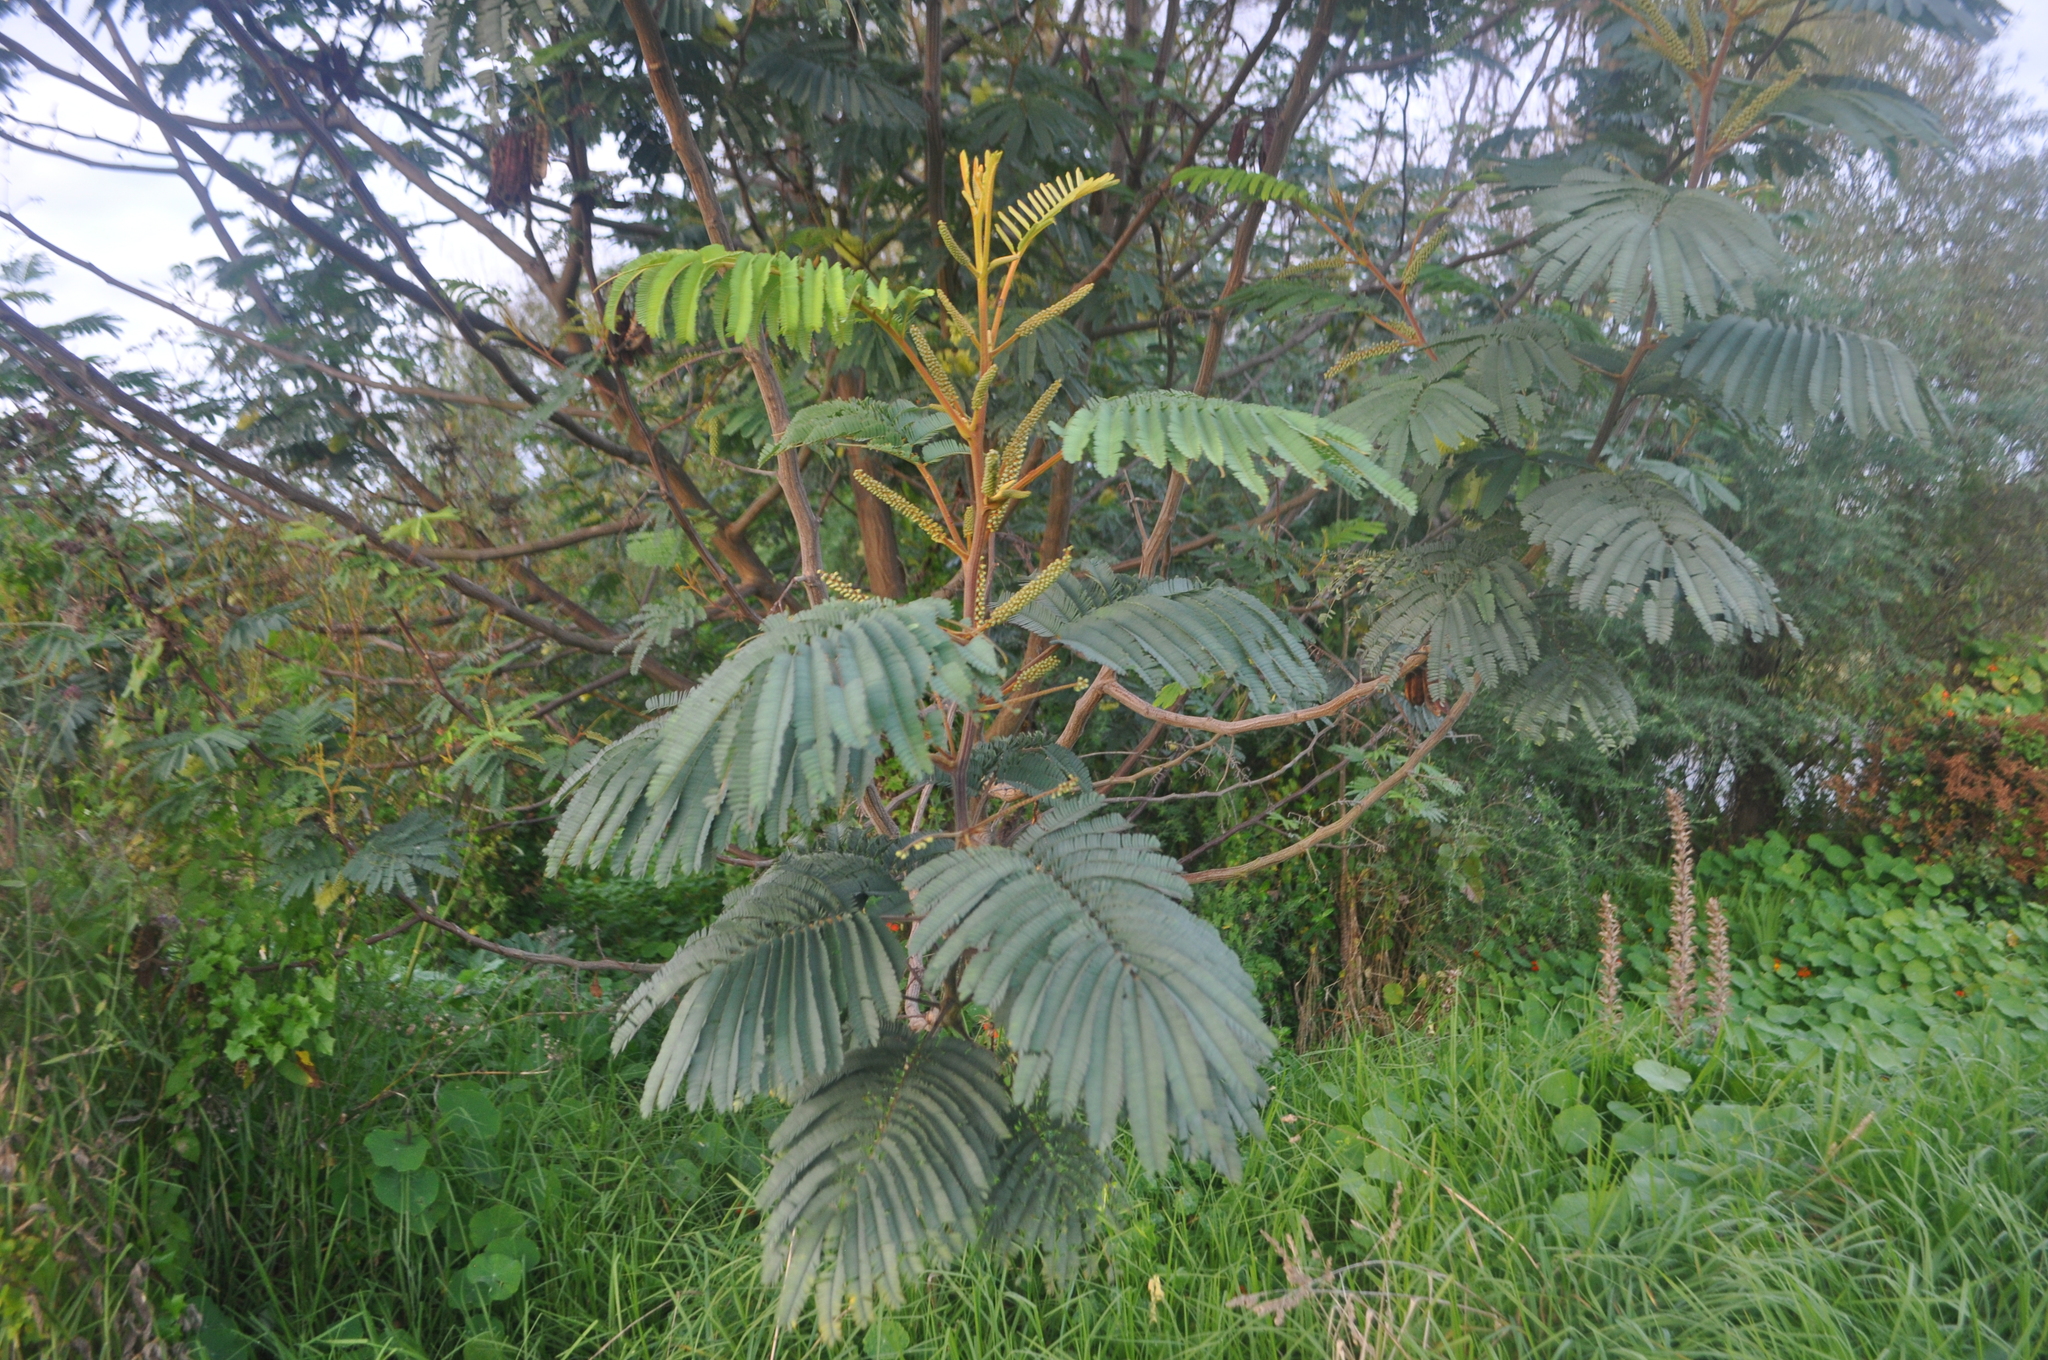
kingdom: Plantae
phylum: Tracheophyta
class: Magnoliopsida
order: Fabales
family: Fabaceae
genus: Paraserianthes
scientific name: Paraserianthes lophantha
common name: Plume albizia
